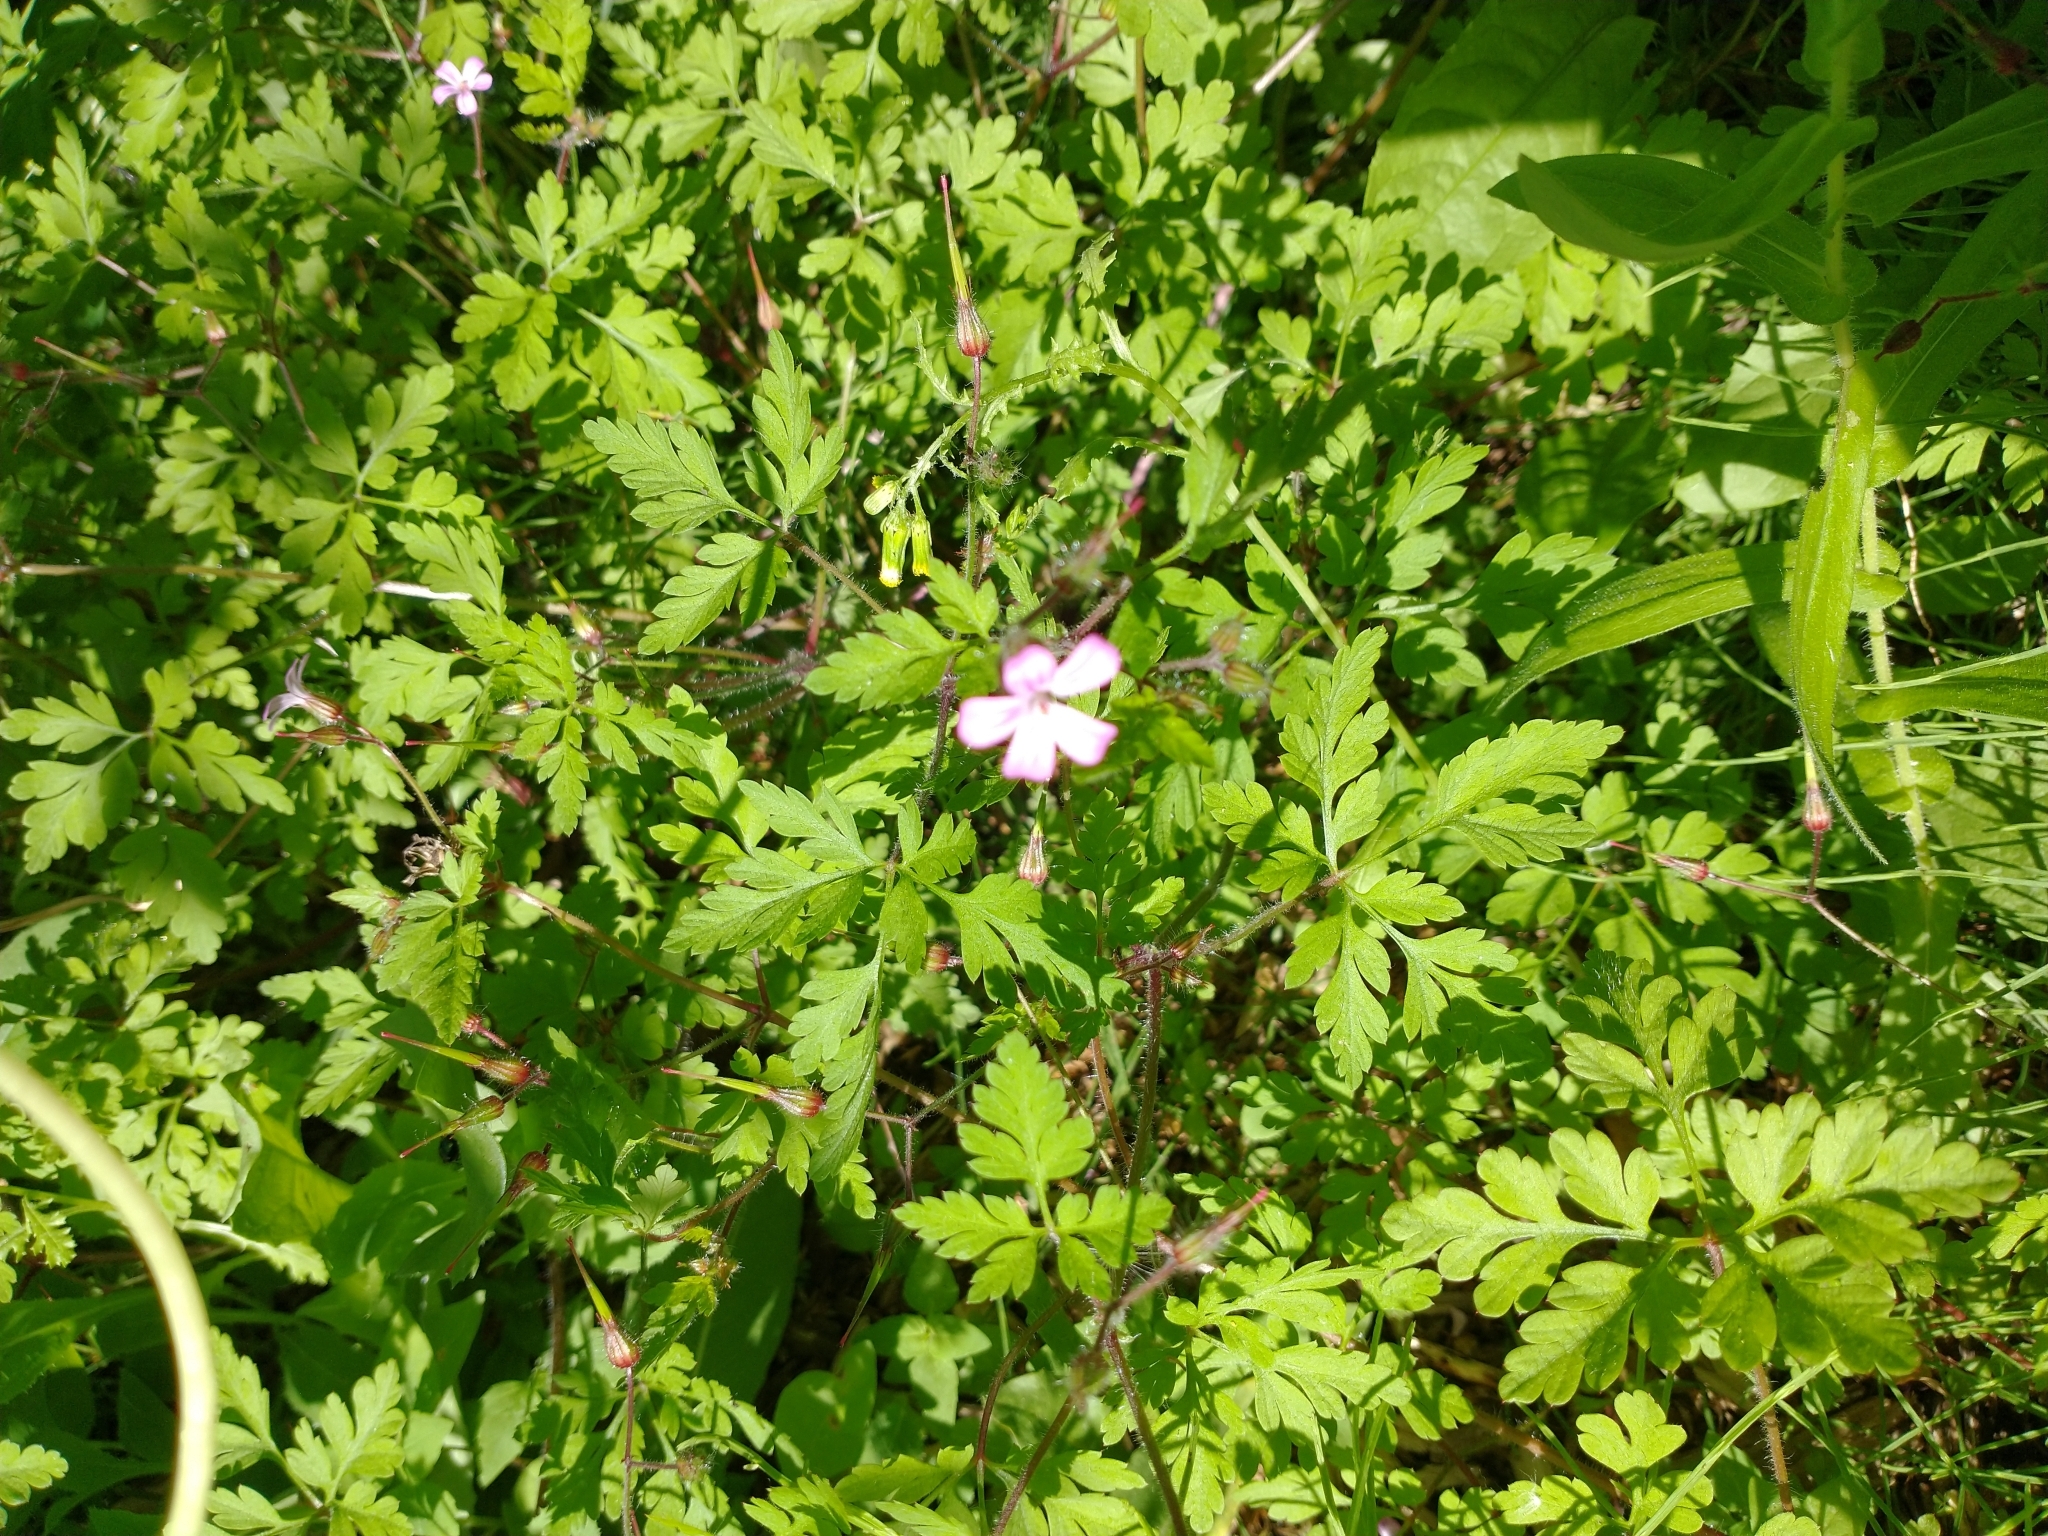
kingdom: Plantae
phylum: Tracheophyta
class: Magnoliopsida
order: Geraniales
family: Geraniaceae
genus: Geranium
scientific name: Geranium robertianum
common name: Herb-robert
